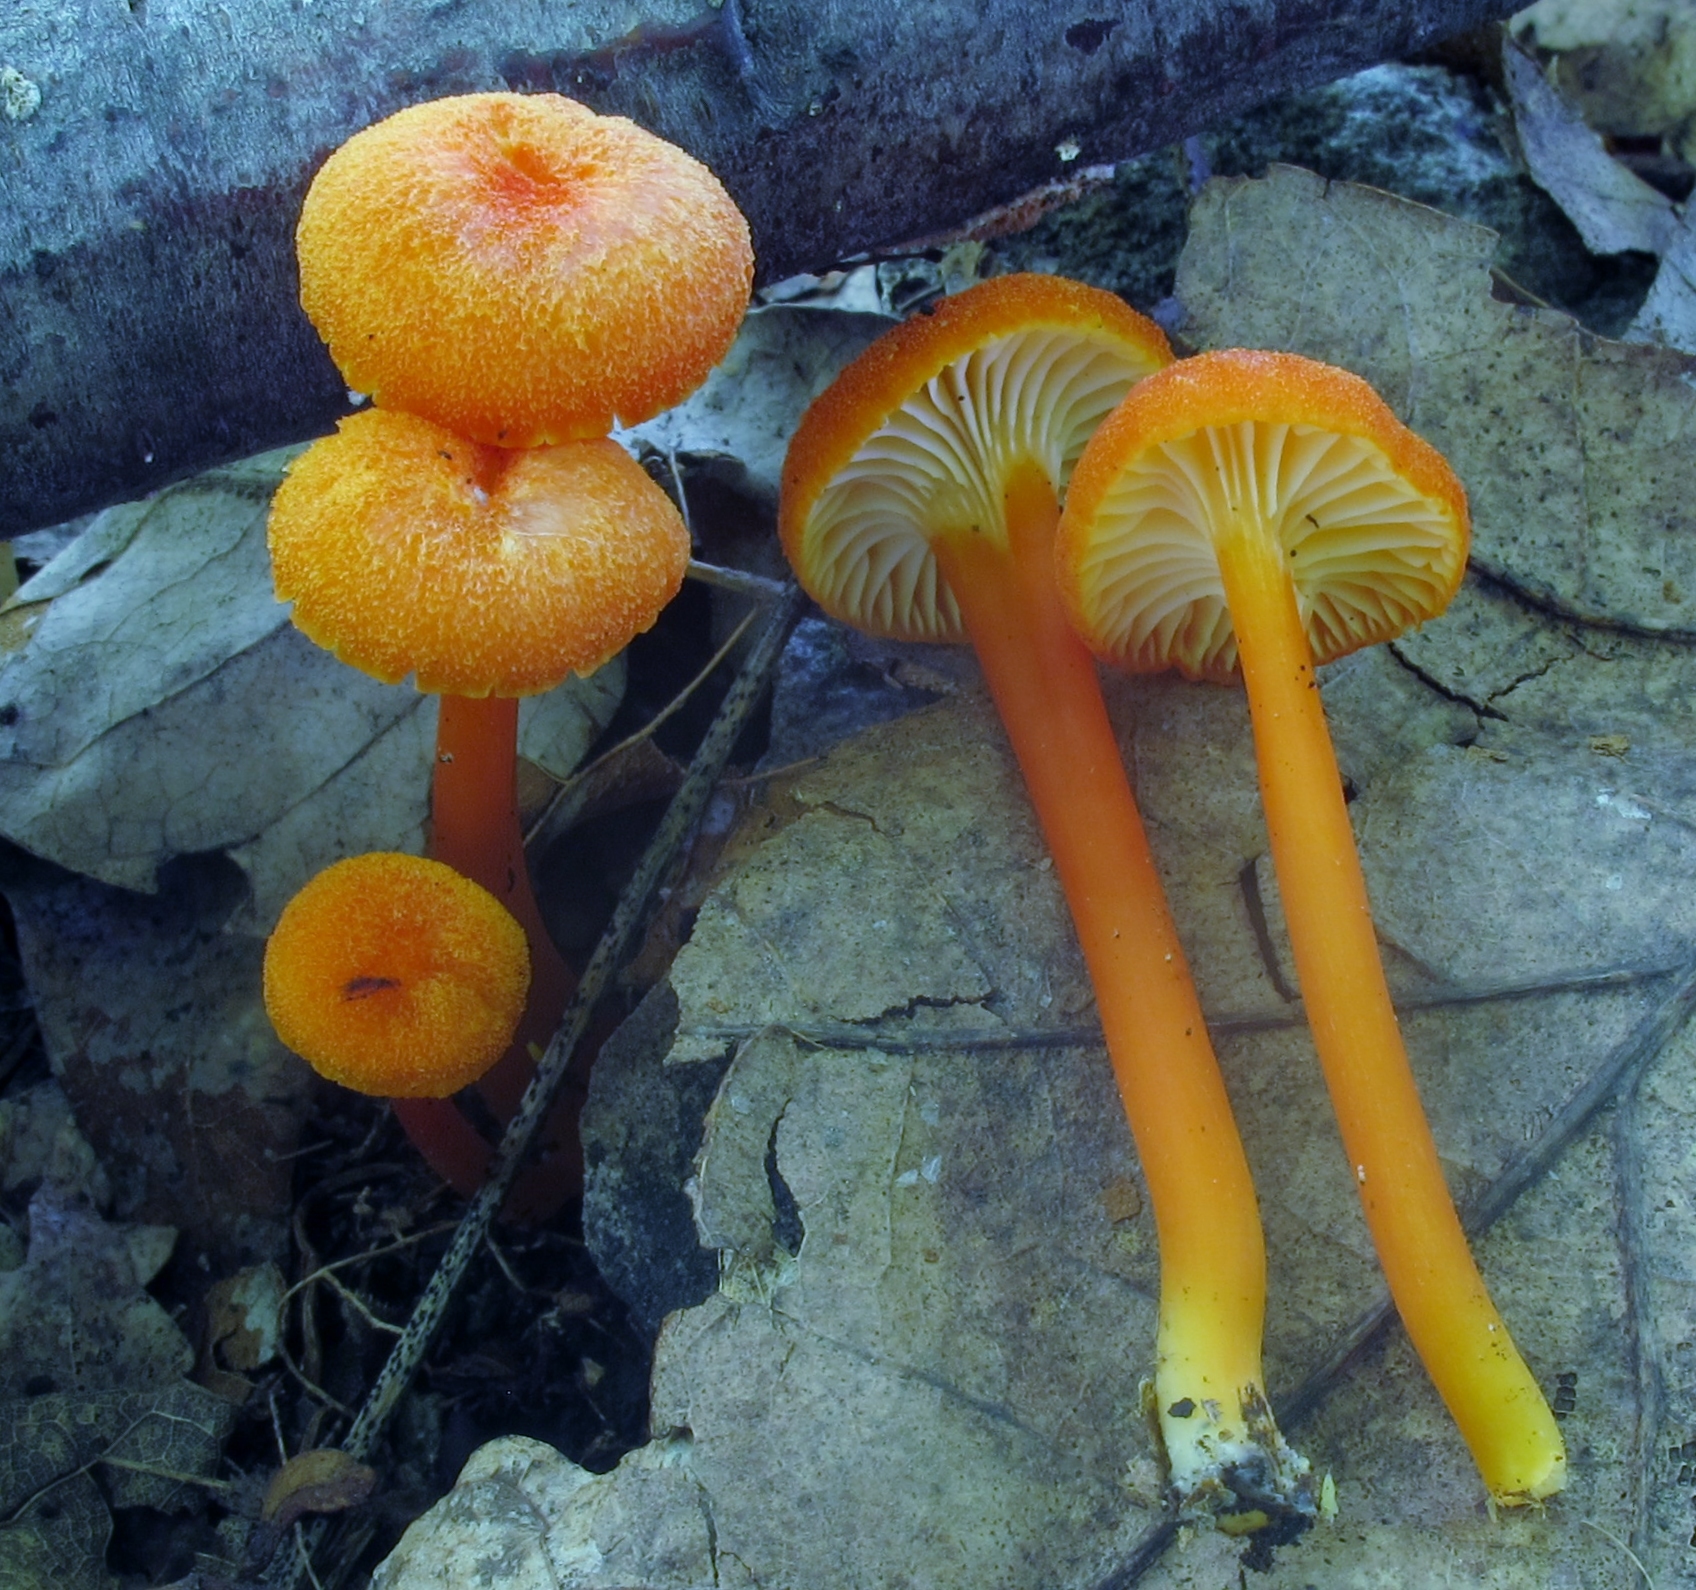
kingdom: Fungi
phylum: Basidiomycota
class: Agaricomycetes
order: Agaricales
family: Hygrophoraceae
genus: Hygrocybe
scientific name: Hygrocybe cantharellus
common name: Goblet waxcap
